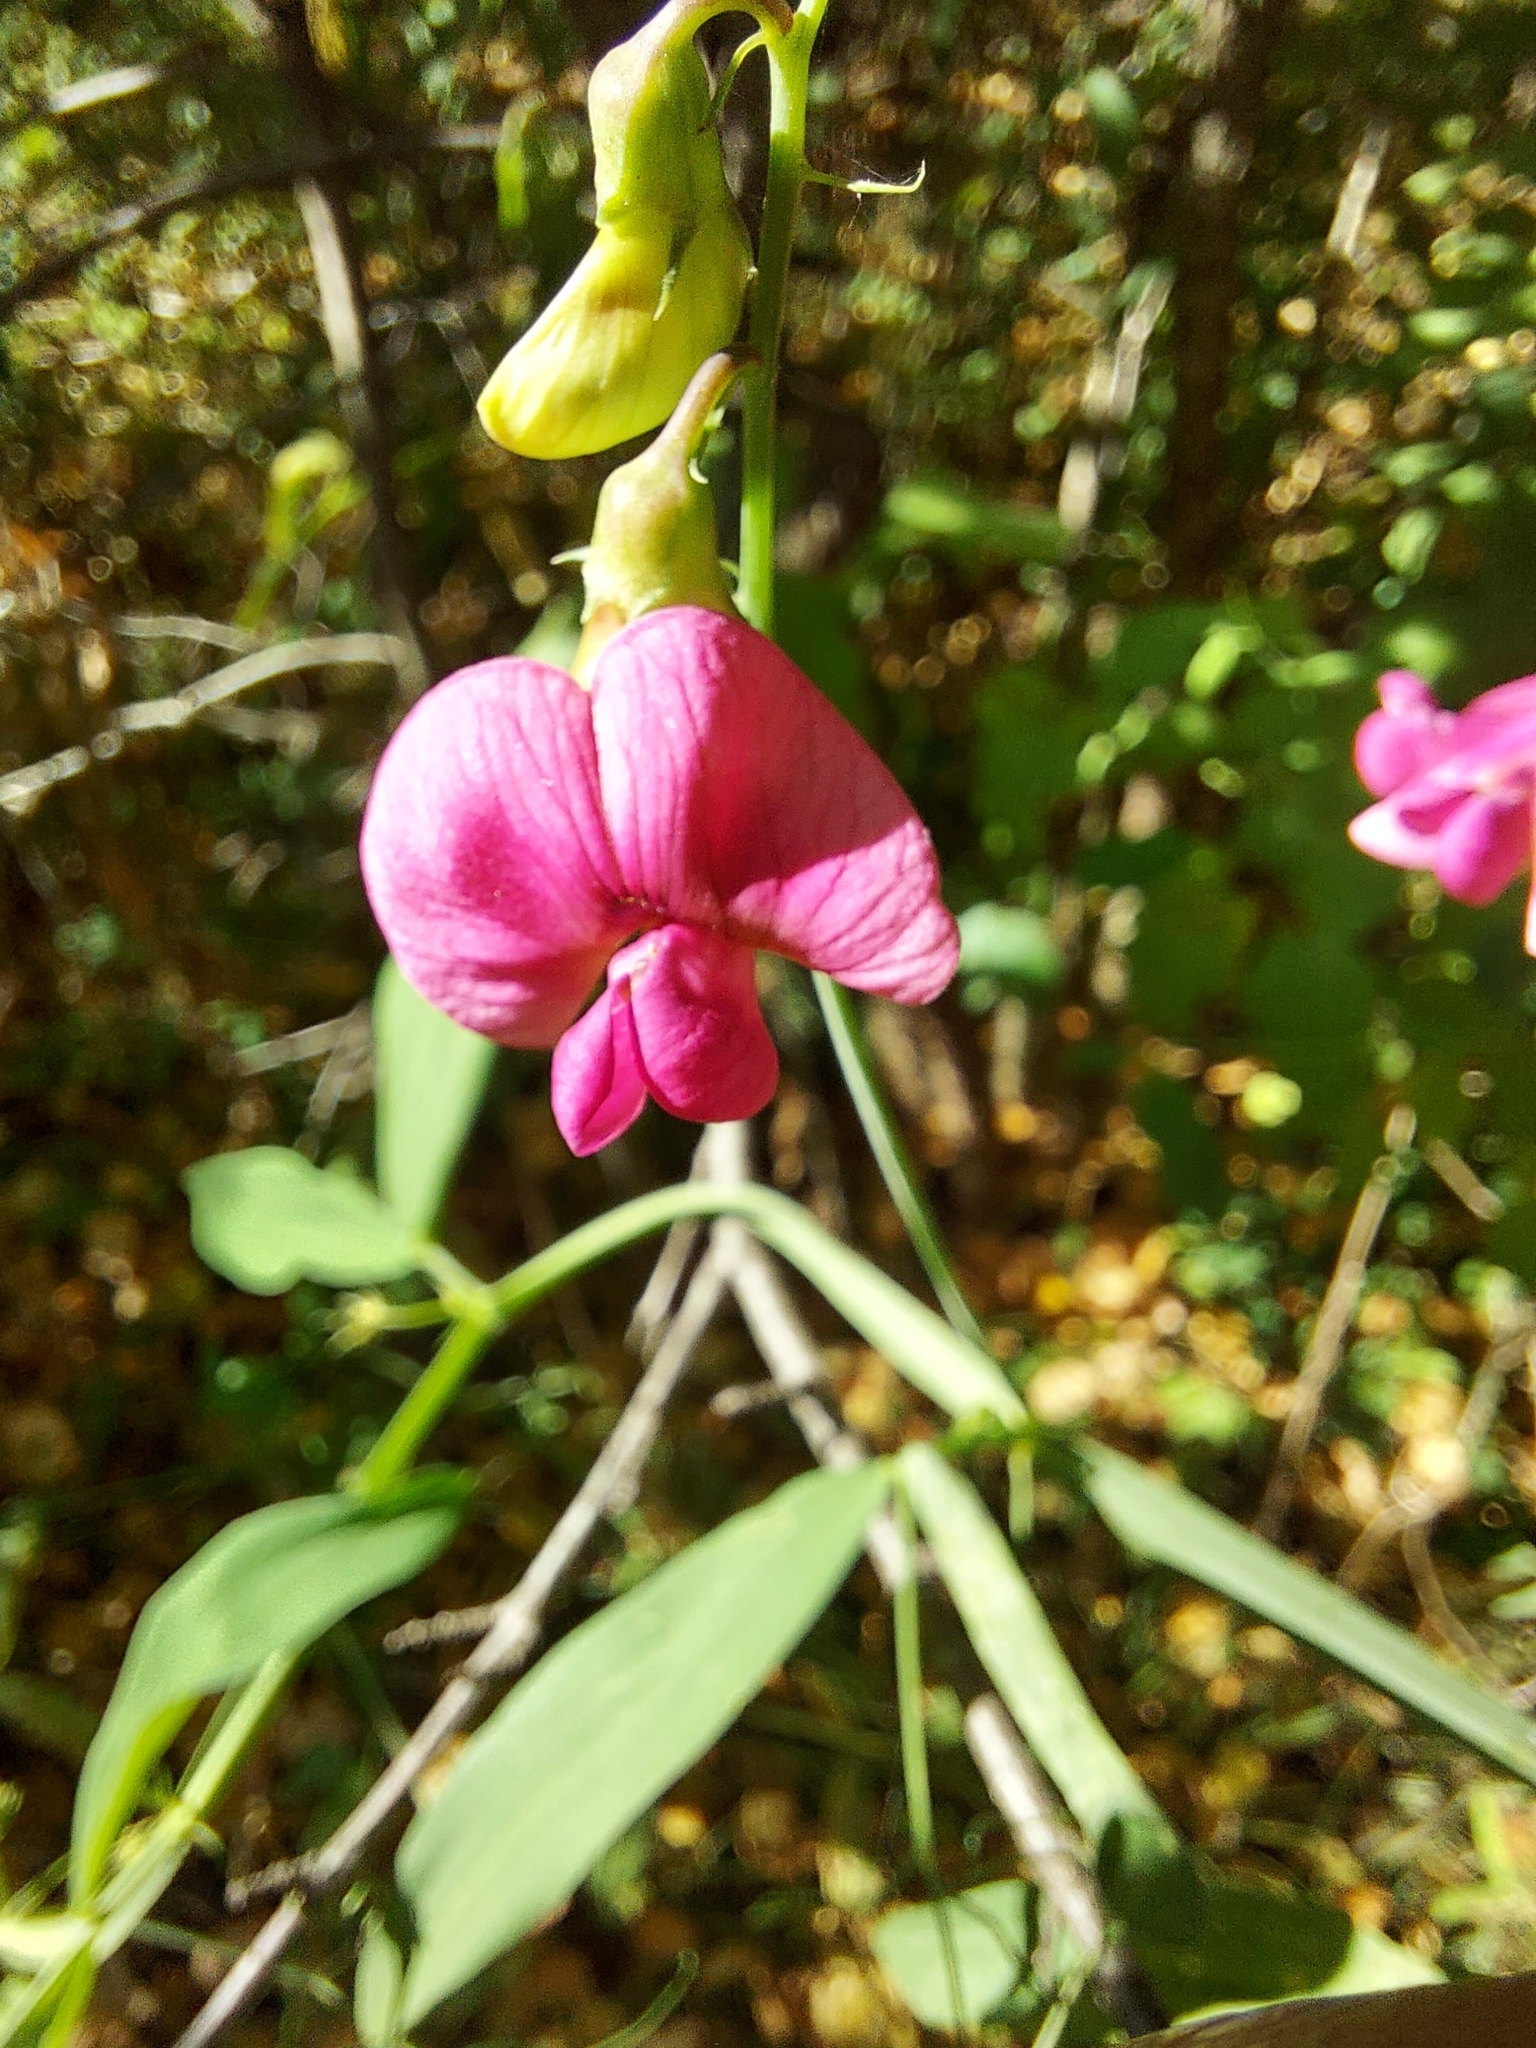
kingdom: Plantae
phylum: Tracheophyta
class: Magnoliopsida
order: Fabales
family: Fabaceae
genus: Lathyrus
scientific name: Lathyrus sylvestris
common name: Flat pea
